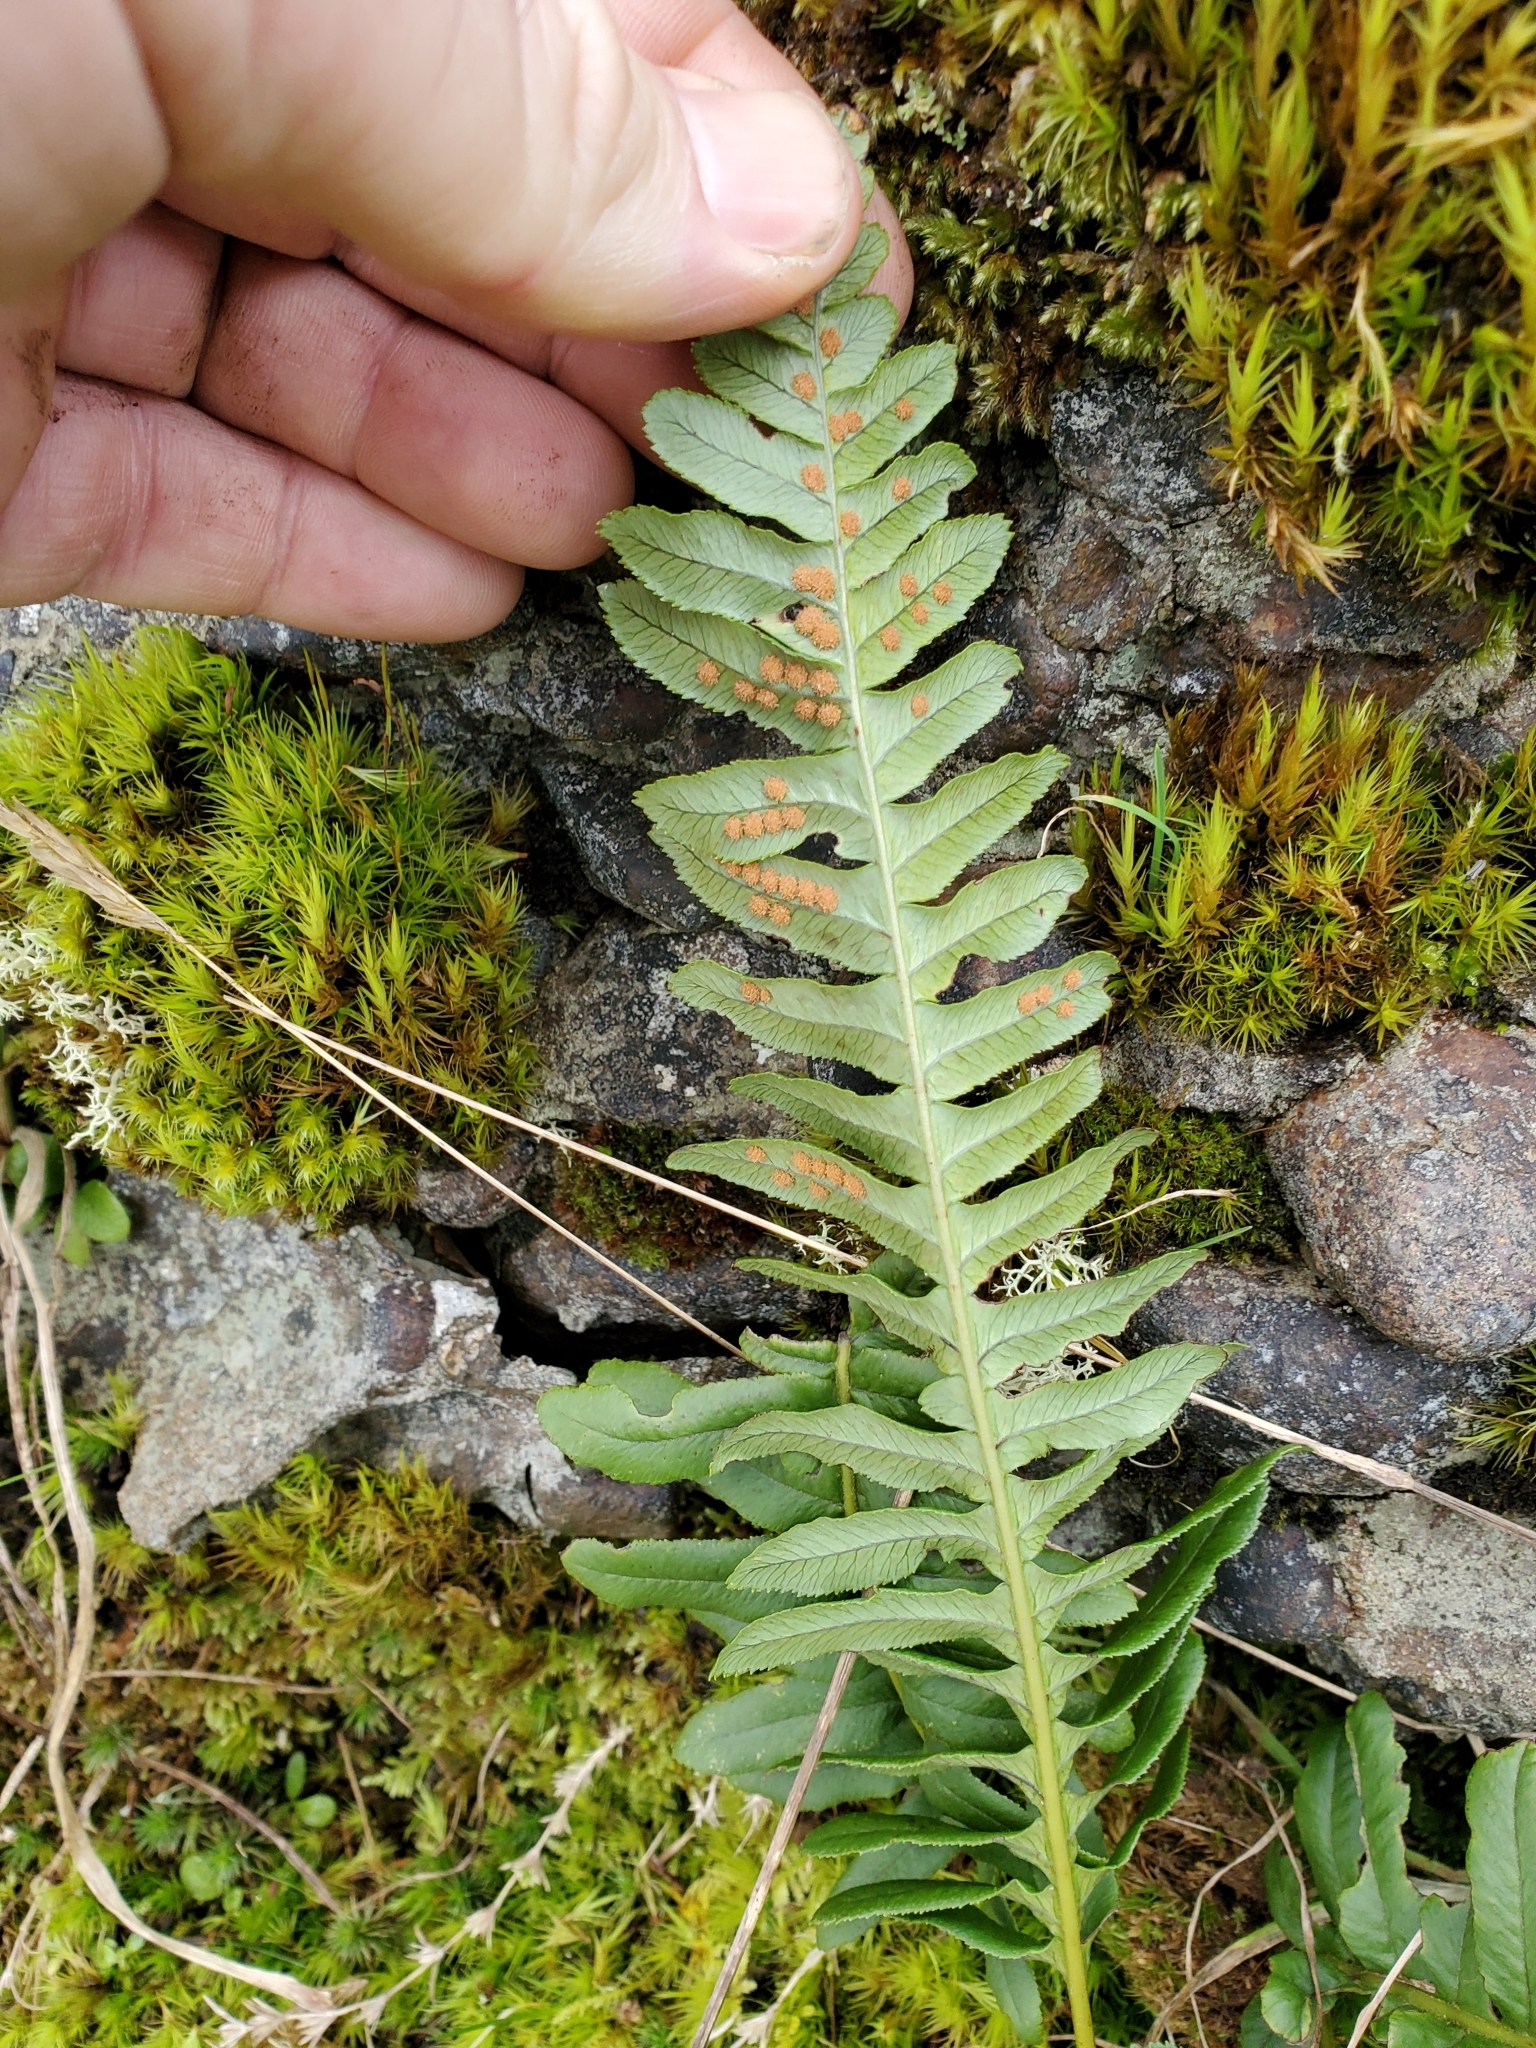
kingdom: Plantae
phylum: Tracheophyta
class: Polypodiopsida
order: Polypodiales
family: Polypodiaceae
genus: Polypodium
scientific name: Polypodium glycyrrhiza
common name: Licorice fern
